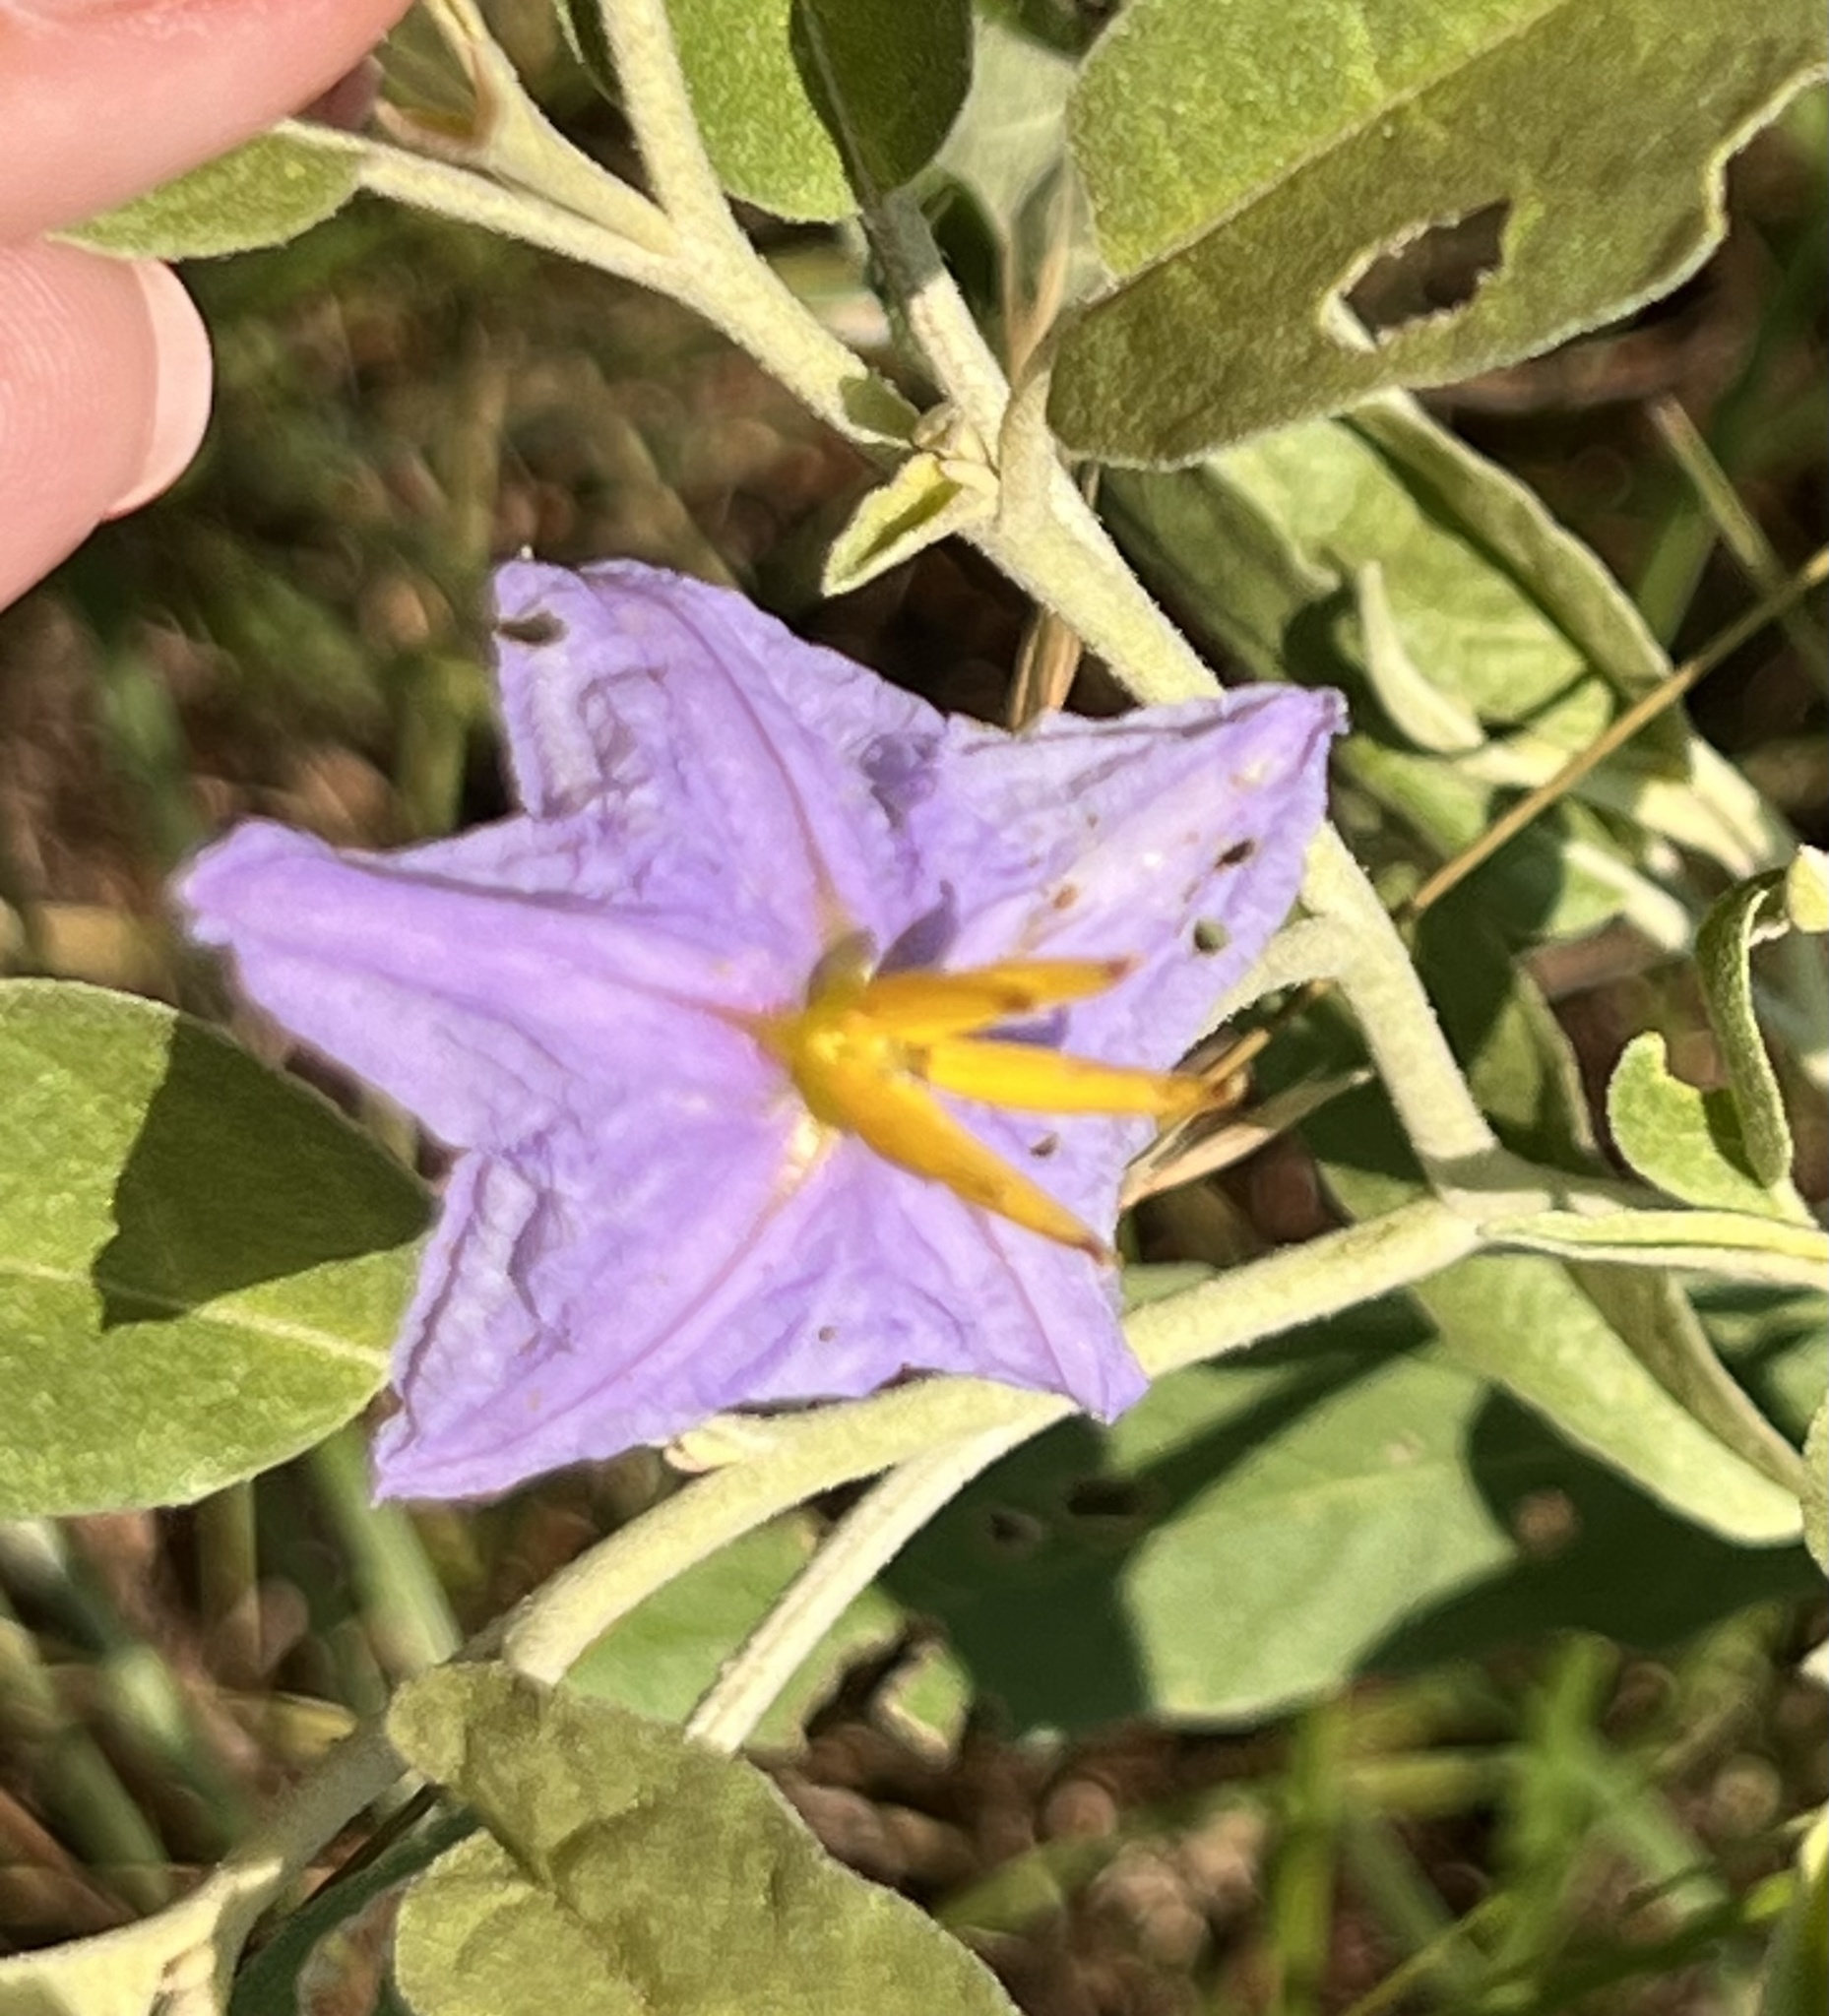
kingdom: Plantae
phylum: Tracheophyta
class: Magnoliopsida
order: Solanales
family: Solanaceae
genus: Solanum
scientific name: Solanum elaeagnifolium
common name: Silverleaf nightshade
